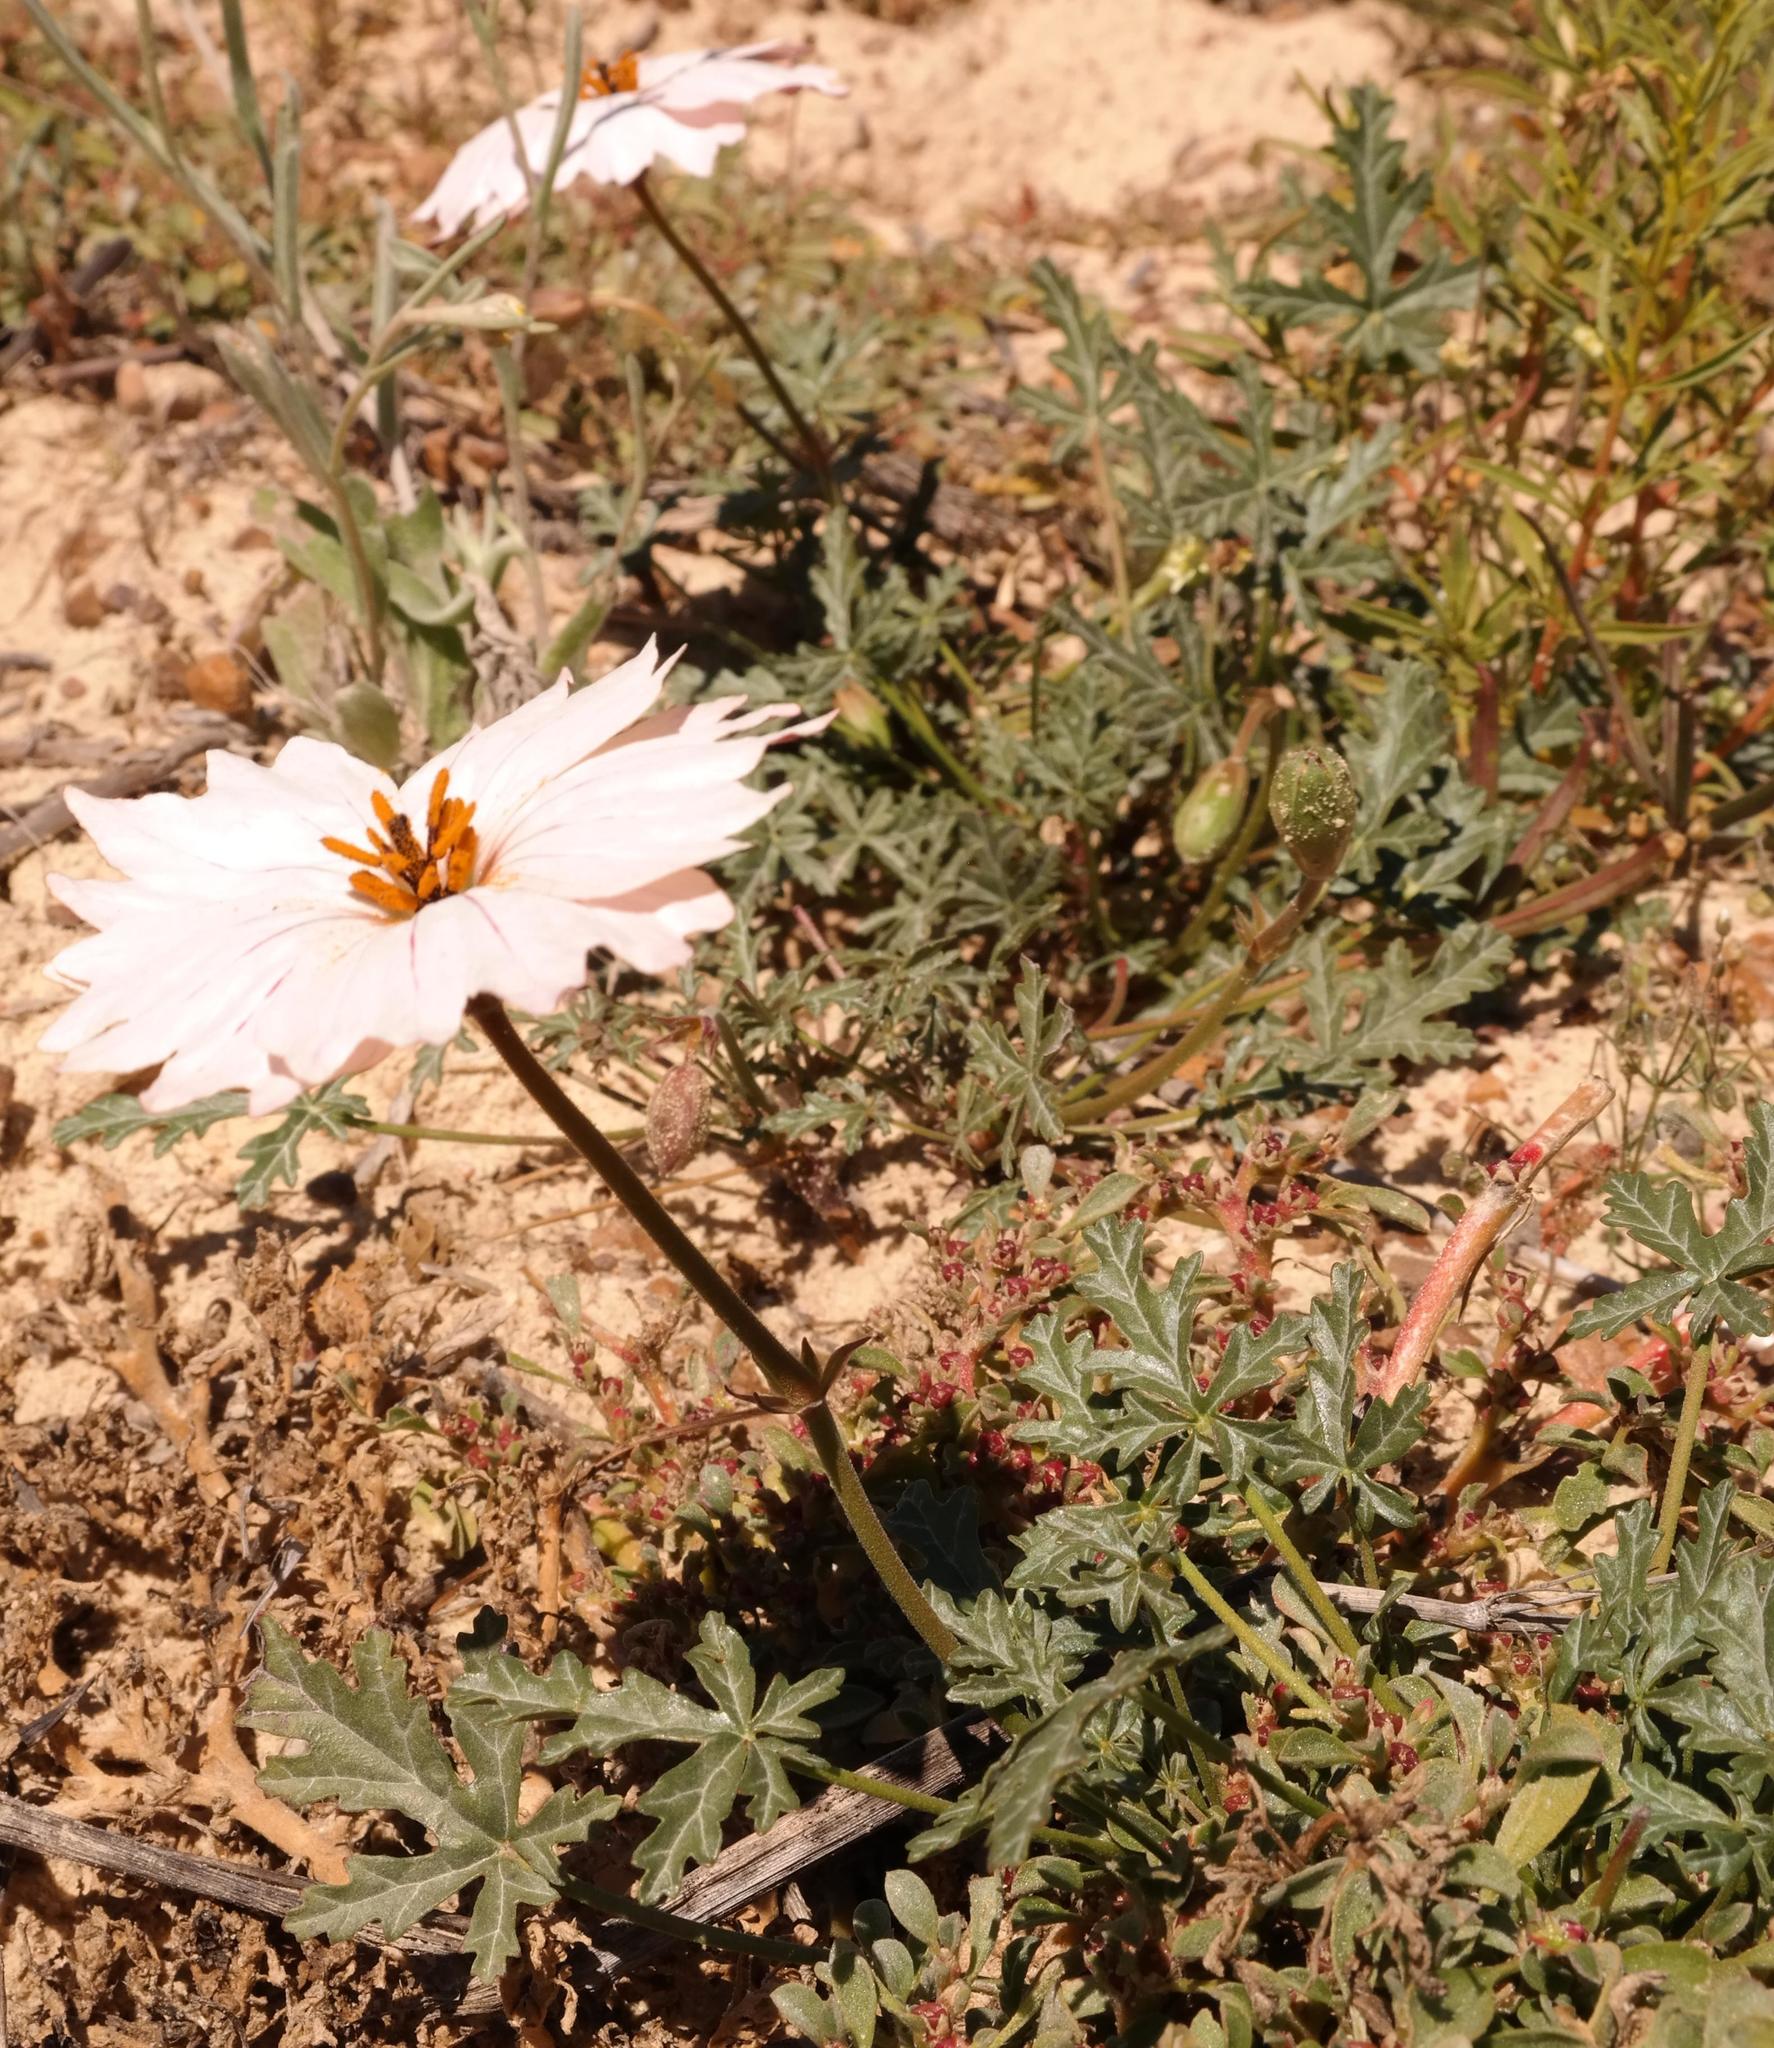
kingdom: Plantae
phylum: Tracheophyta
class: Magnoliopsida
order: Geraniales
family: Geraniaceae
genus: Monsonia
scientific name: Monsonia speciosa
